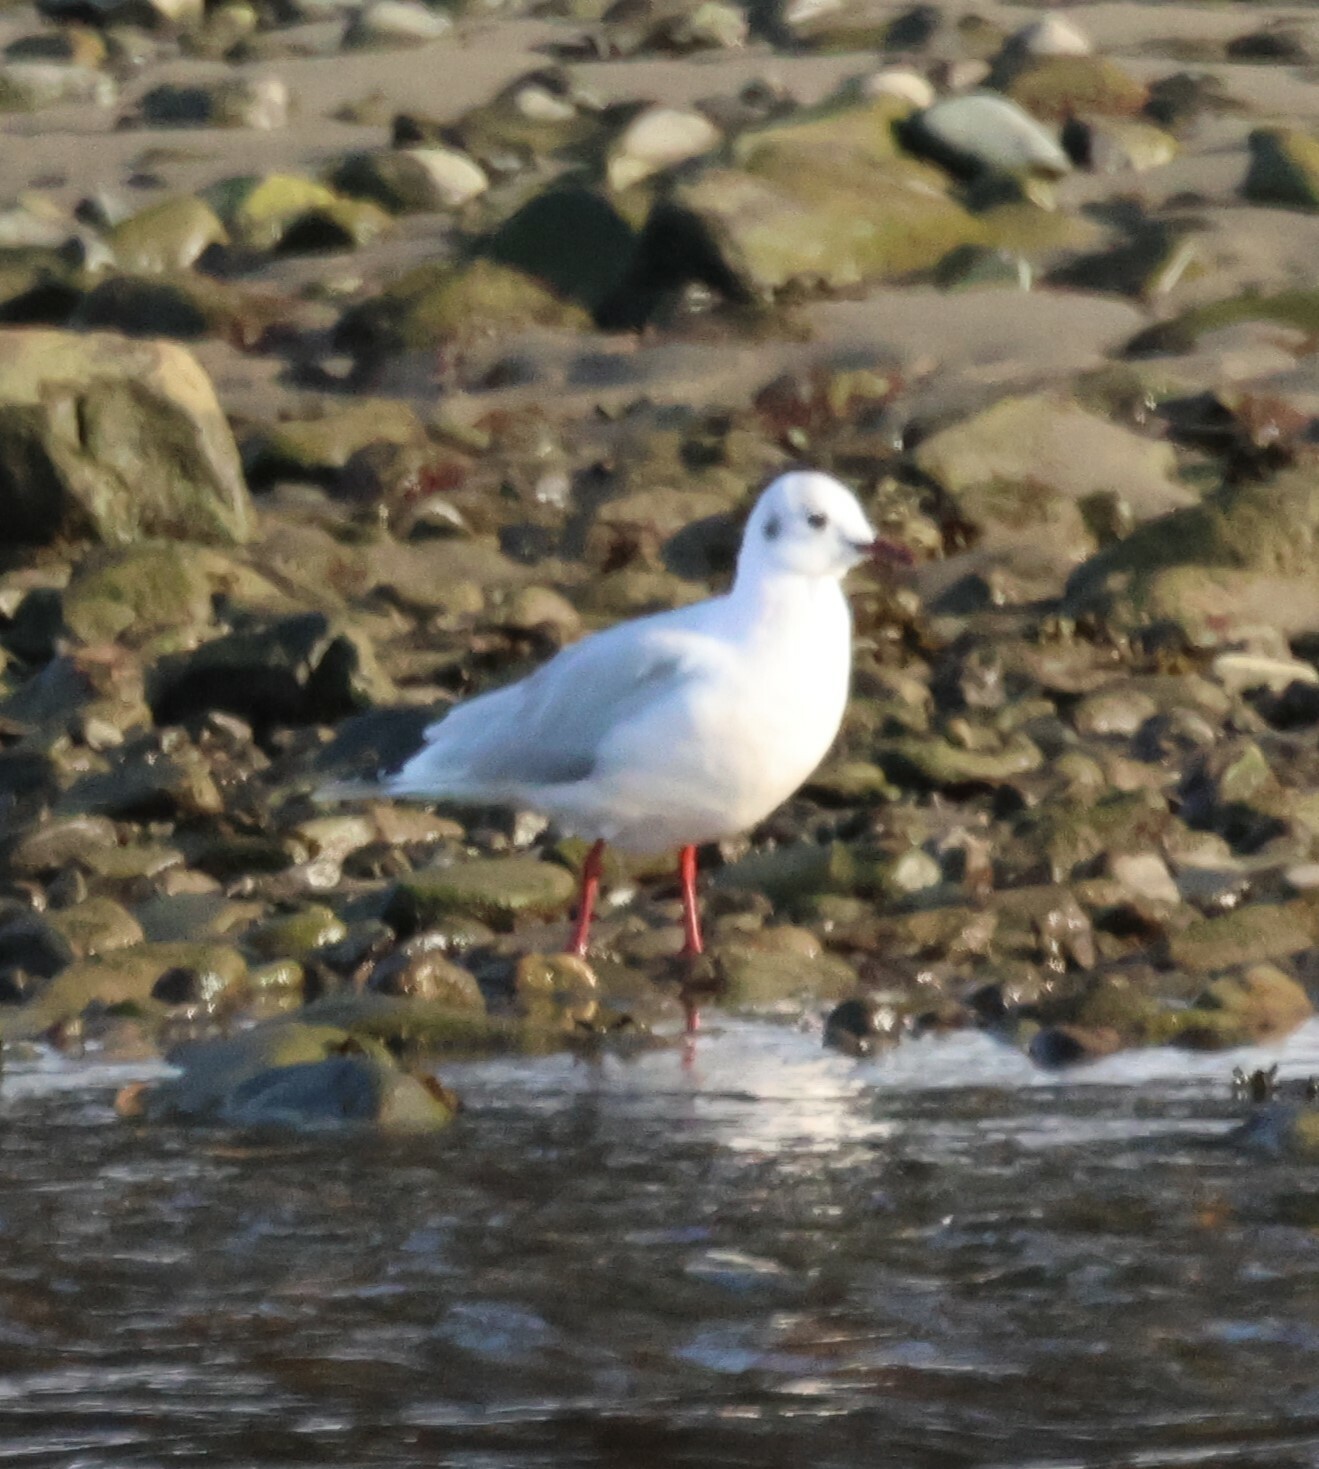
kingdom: Animalia
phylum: Chordata
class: Aves
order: Charadriiformes
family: Laridae
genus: Chroicocephalus
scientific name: Chroicocephalus ridibundus
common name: Black-headed gull
